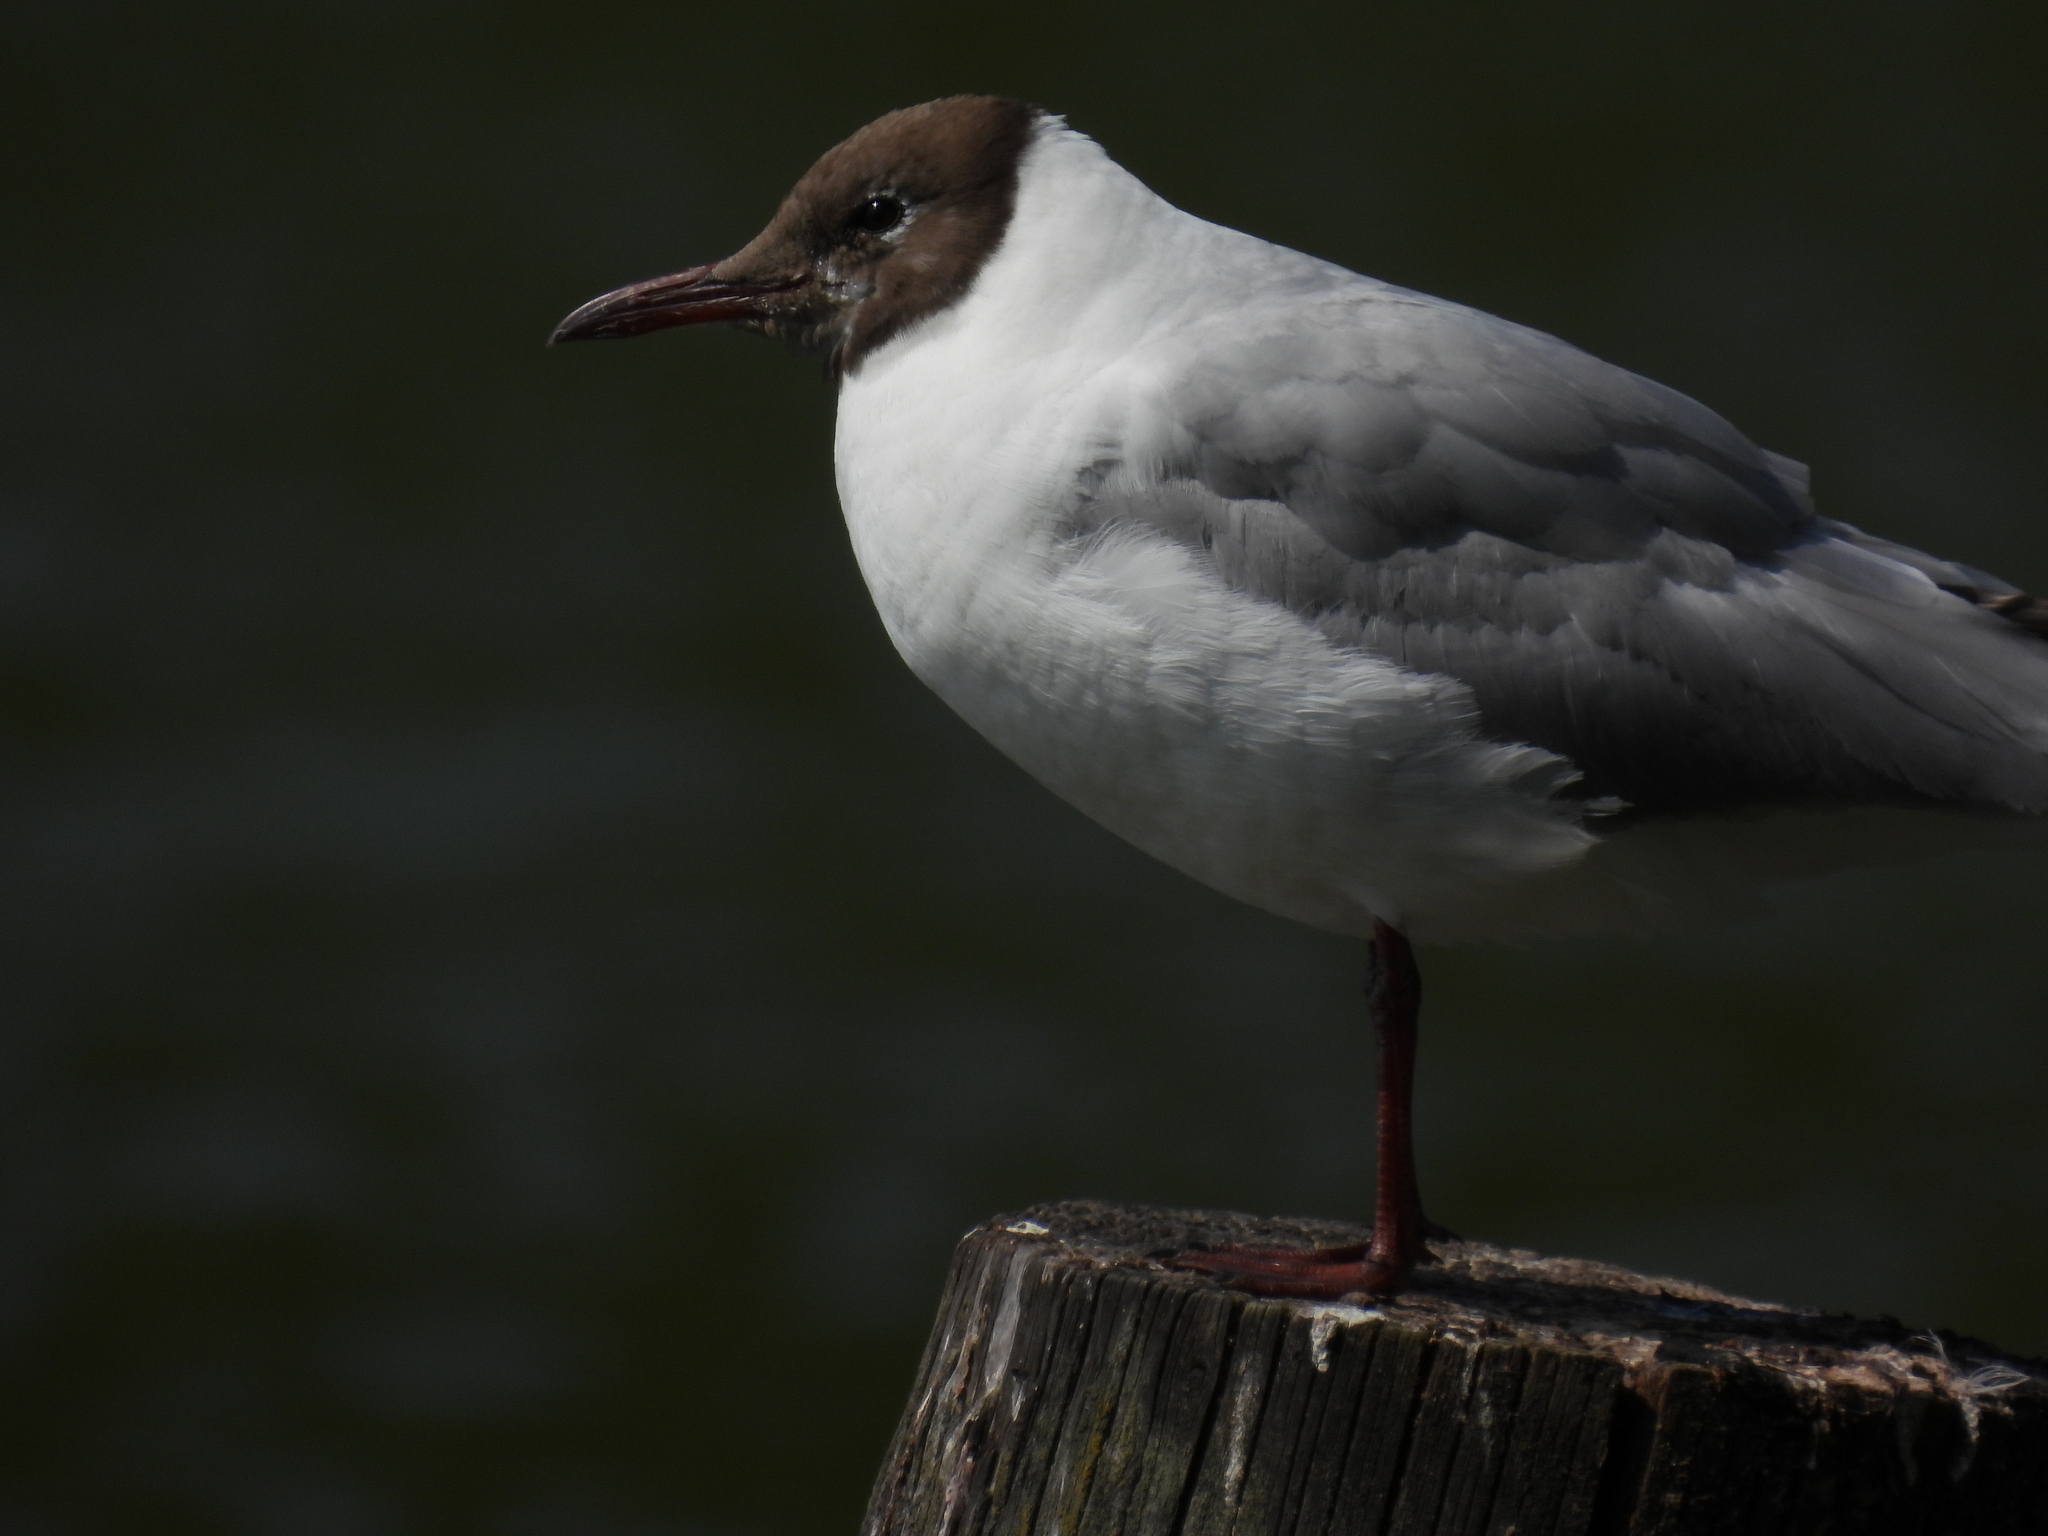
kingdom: Animalia
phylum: Chordata
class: Aves
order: Charadriiformes
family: Laridae
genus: Chroicocephalus
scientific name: Chroicocephalus ridibundus
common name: Black-headed gull
